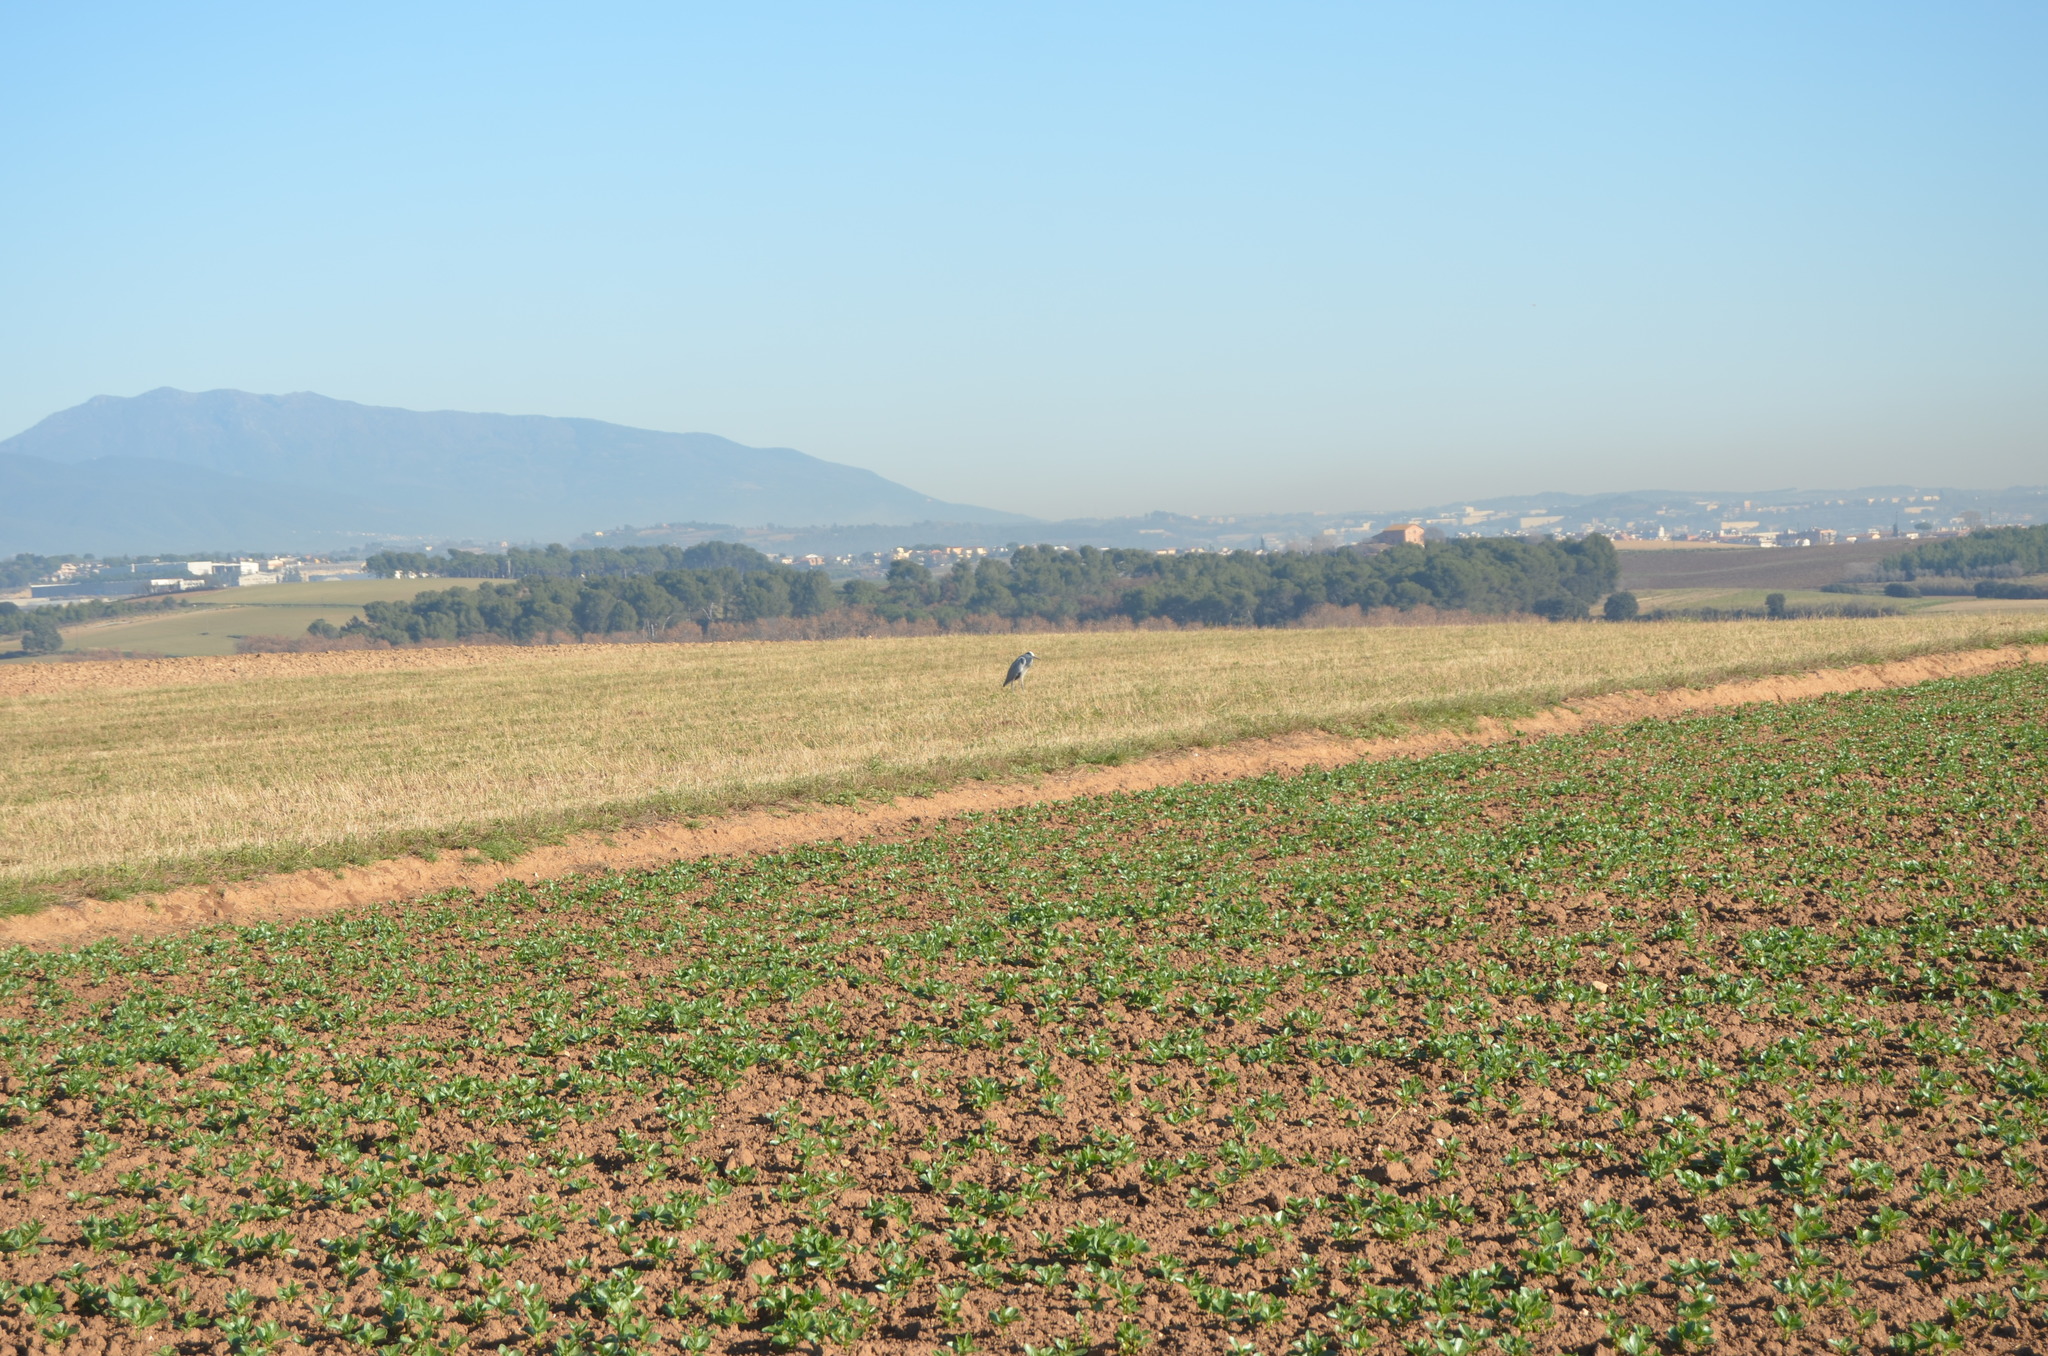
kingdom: Animalia
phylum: Chordata
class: Aves
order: Pelecaniformes
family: Ardeidae
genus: Ardea
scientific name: Ardea cinerea
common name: Grey heron
